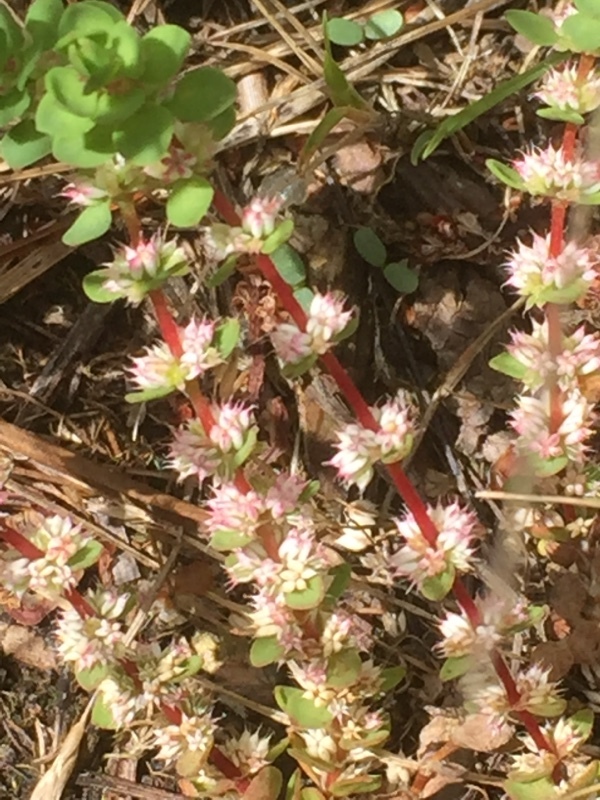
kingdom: Plantae
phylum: Tracheophyta
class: Magnoliopsida
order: Caryophyllales
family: Caryophyllaceae
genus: Illecebrum
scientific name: Illecebrum verticillatum
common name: Coral necklace
